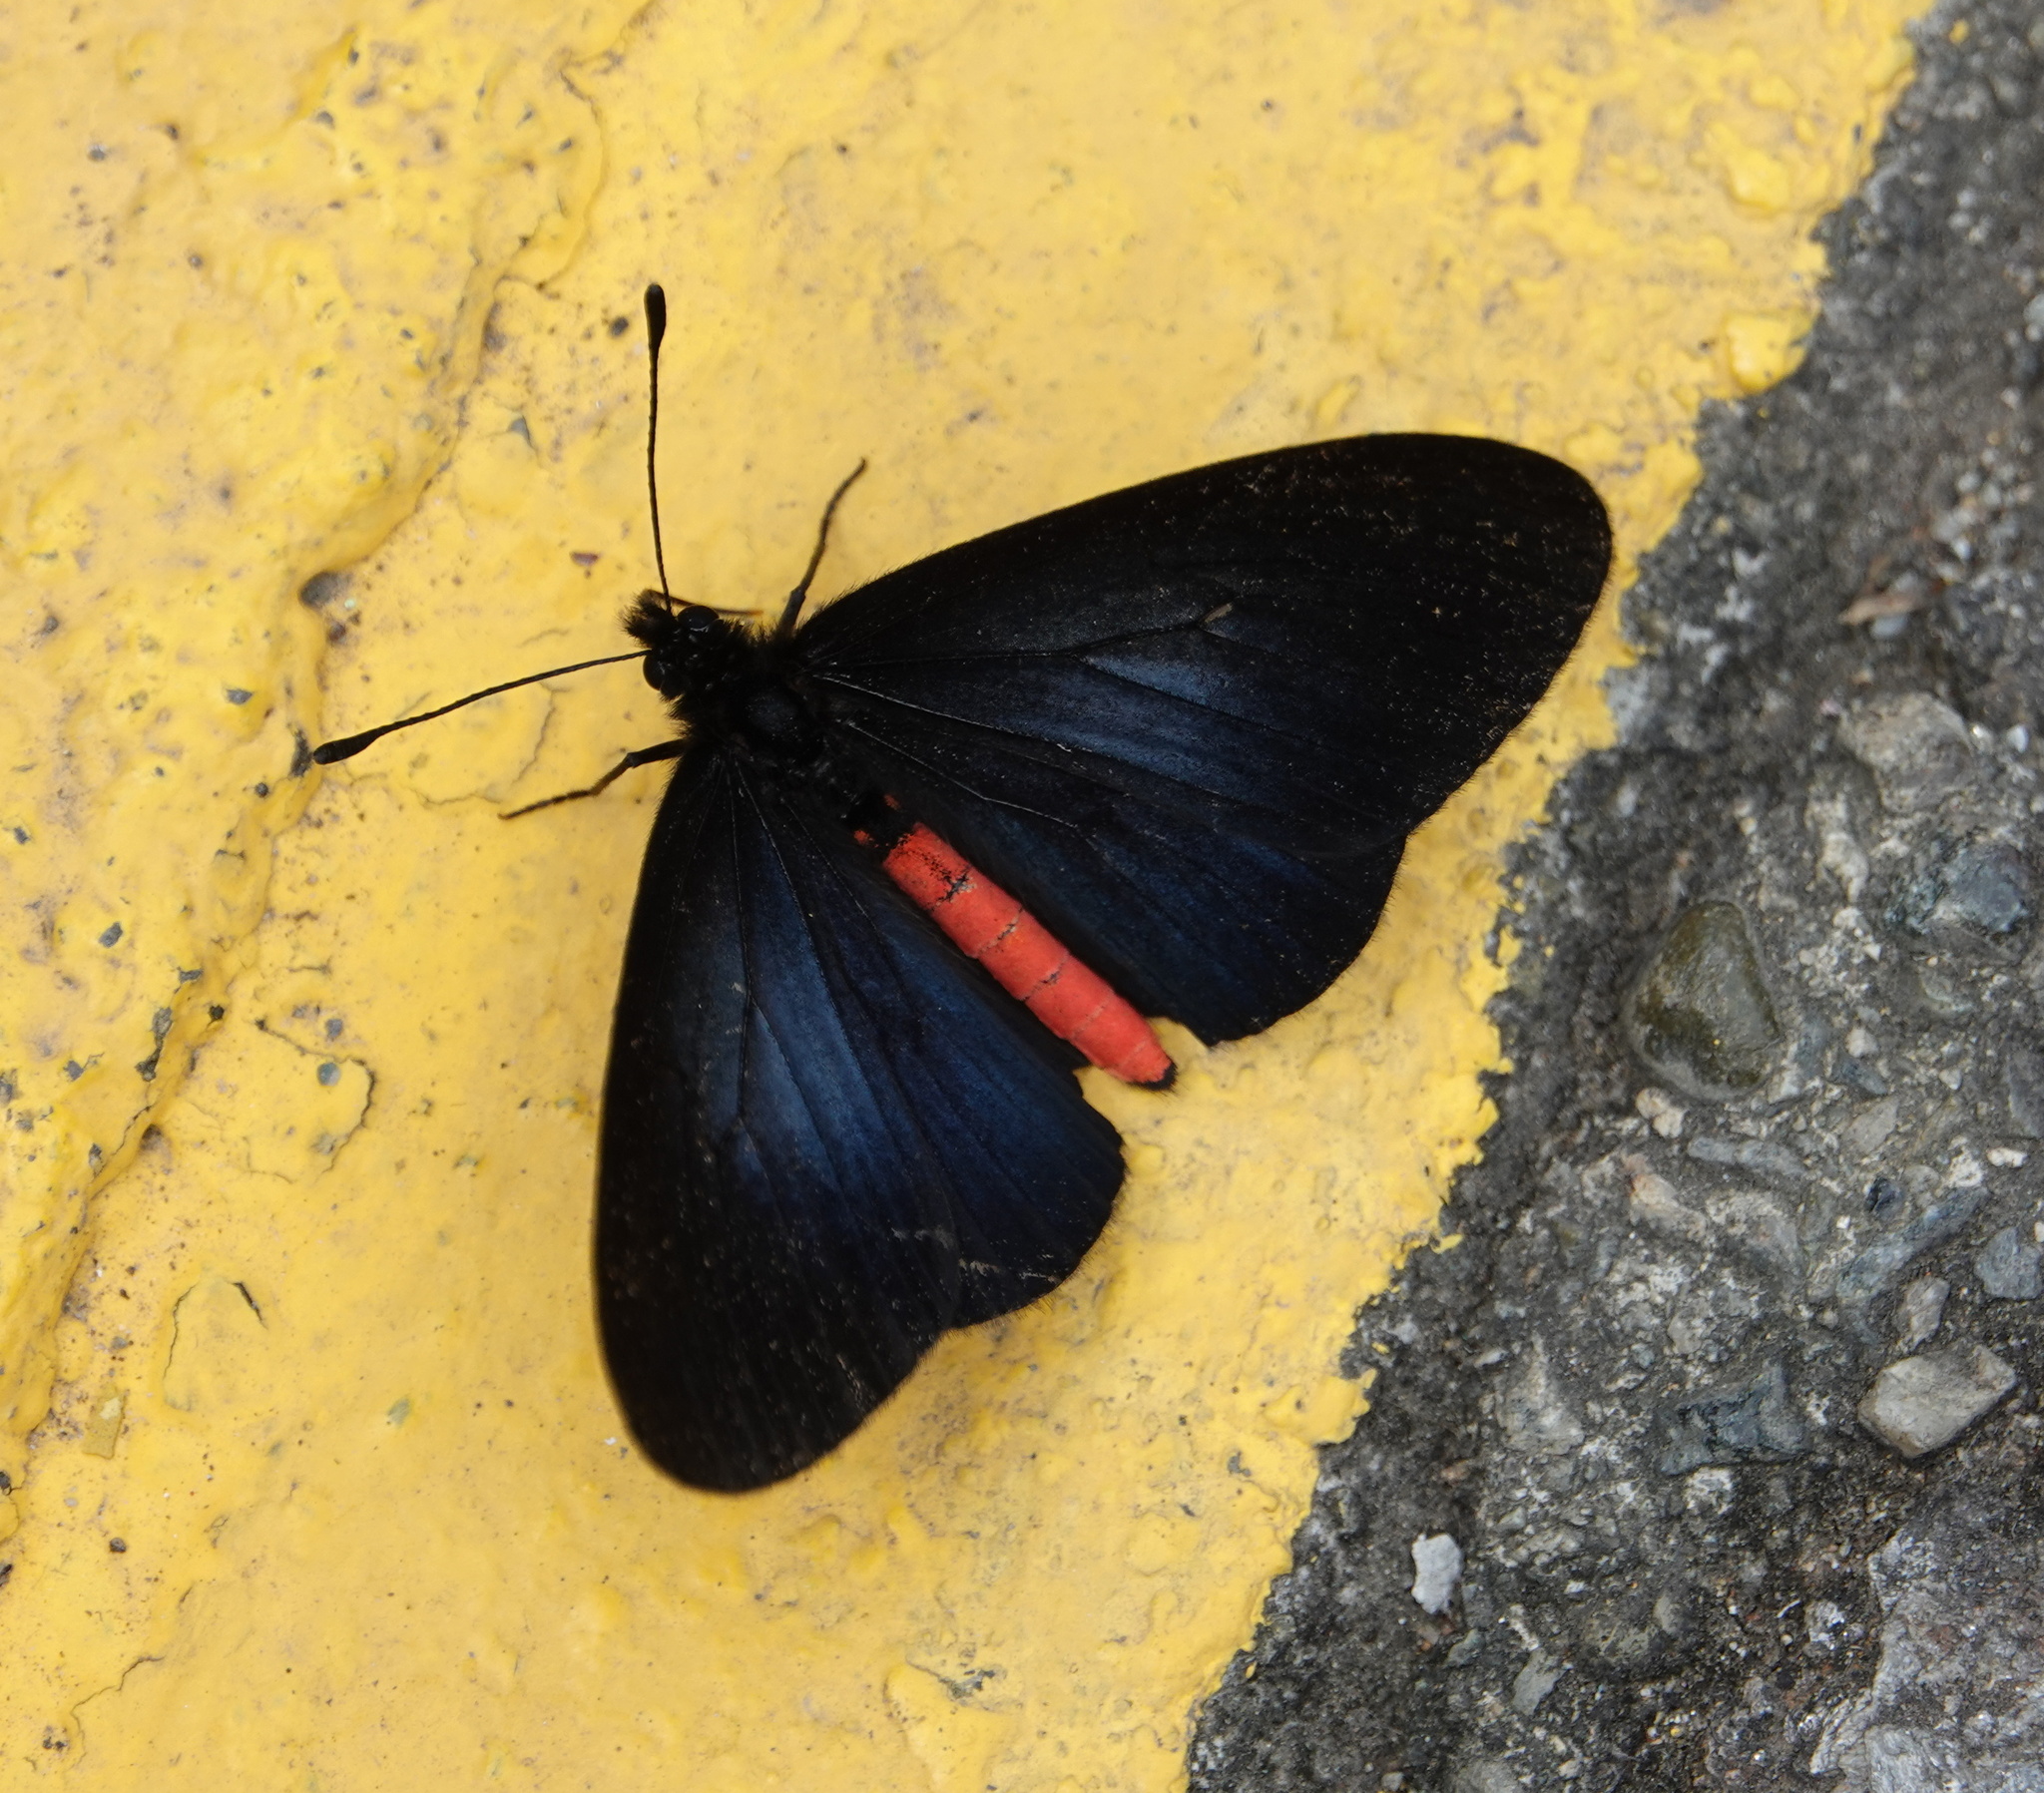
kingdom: Animalia
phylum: Arthropoda
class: Insecta
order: Lepidoptera
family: Nymphalidae
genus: Actinote
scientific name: Actinote neleus
